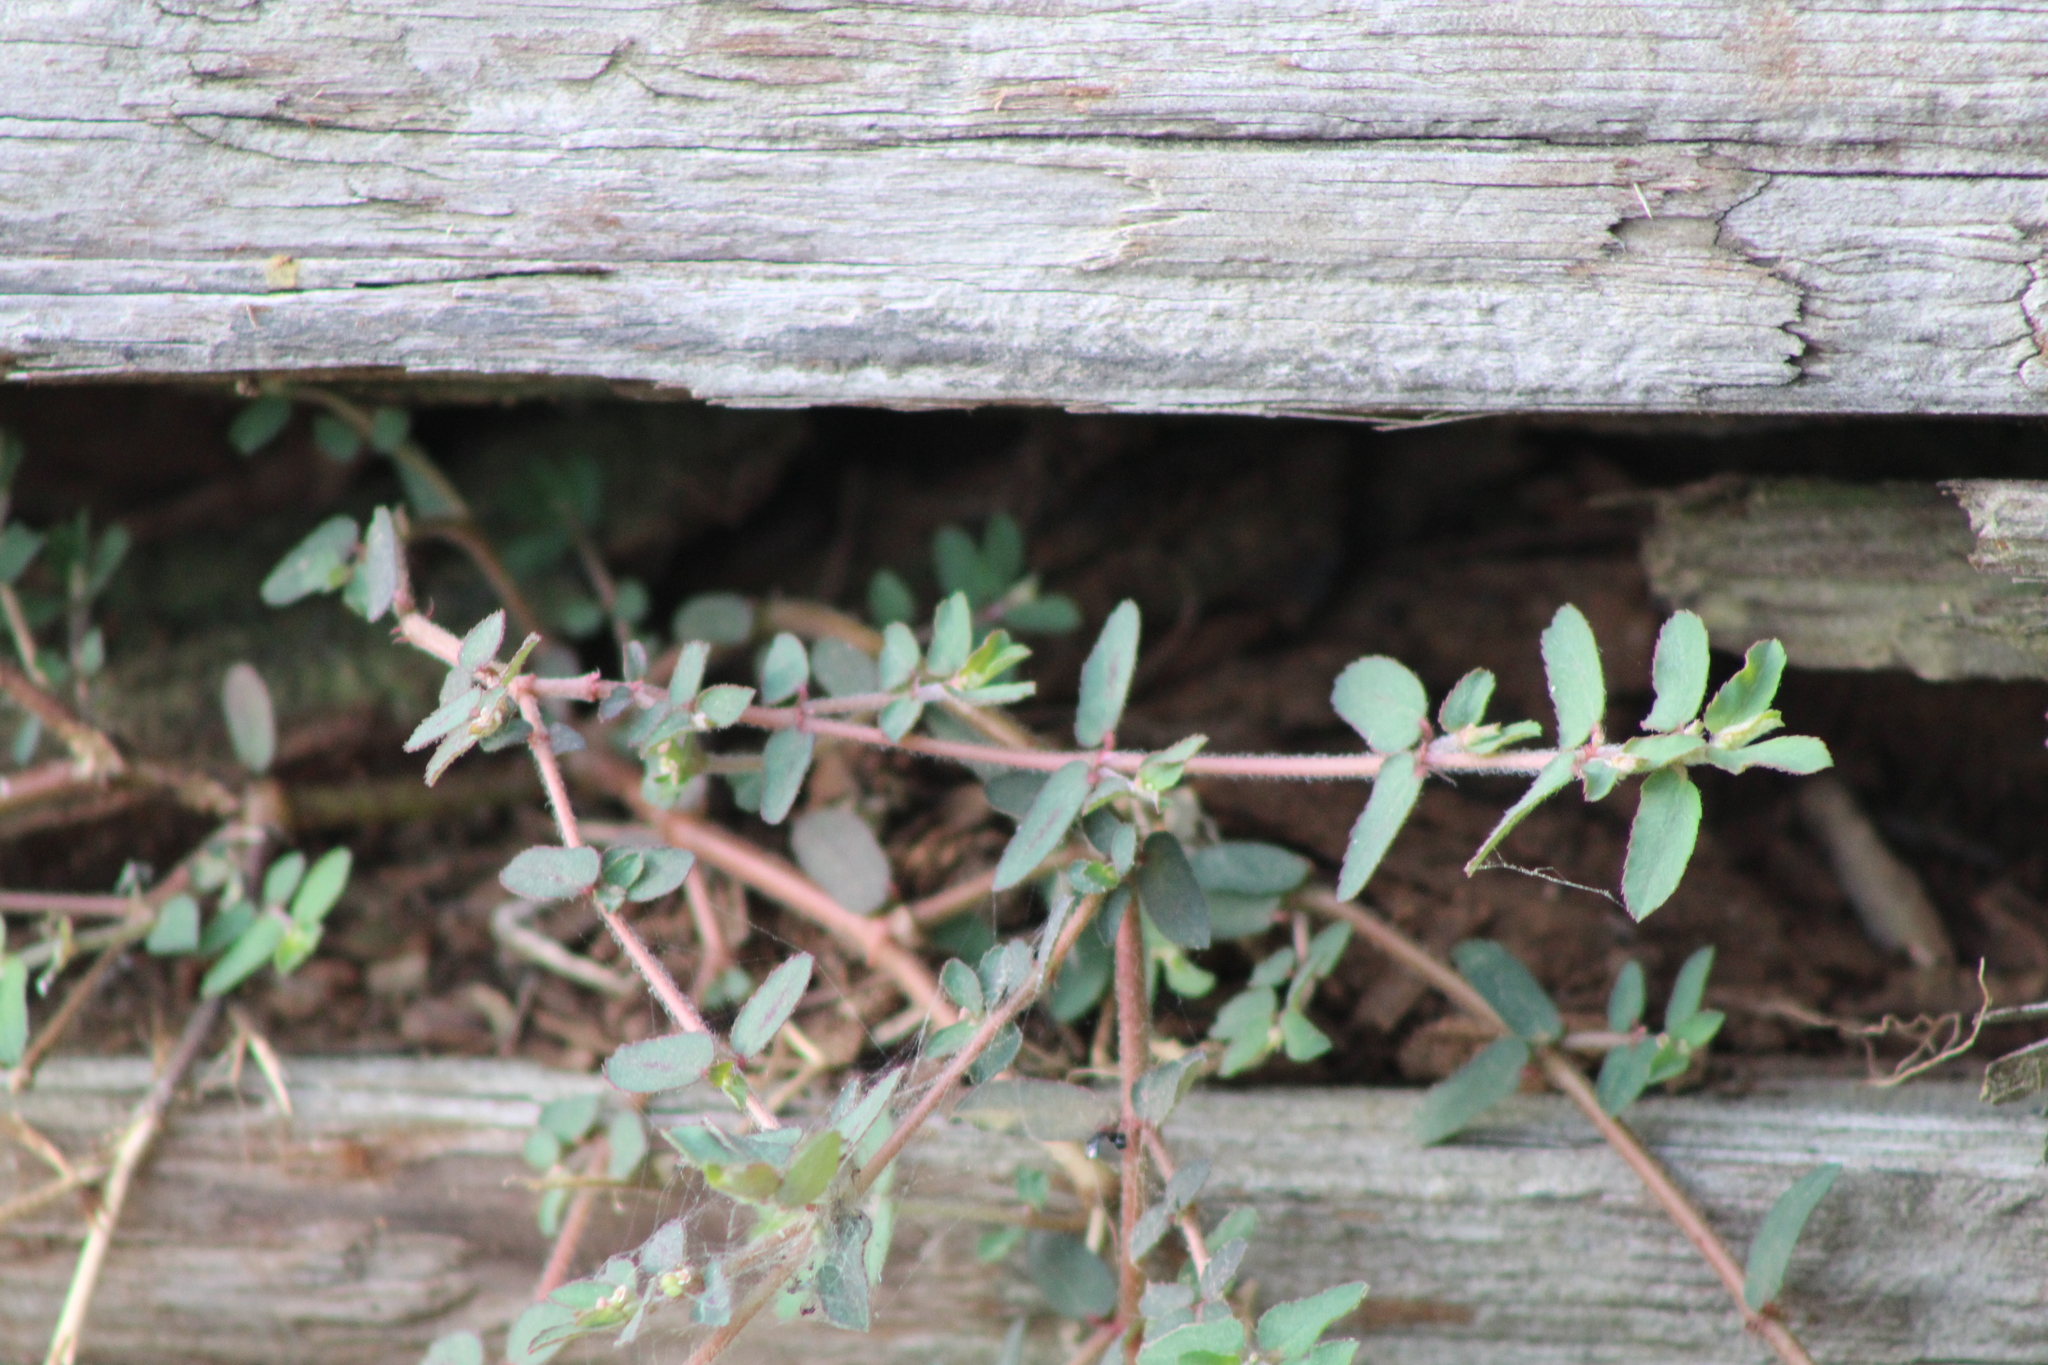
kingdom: Plantae
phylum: Tracheophyta
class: Magnoliopsida
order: Malpighiales
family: Euphorbiaceae
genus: Euphorbia
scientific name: Euphorbia maculata
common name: Spotted spurge
